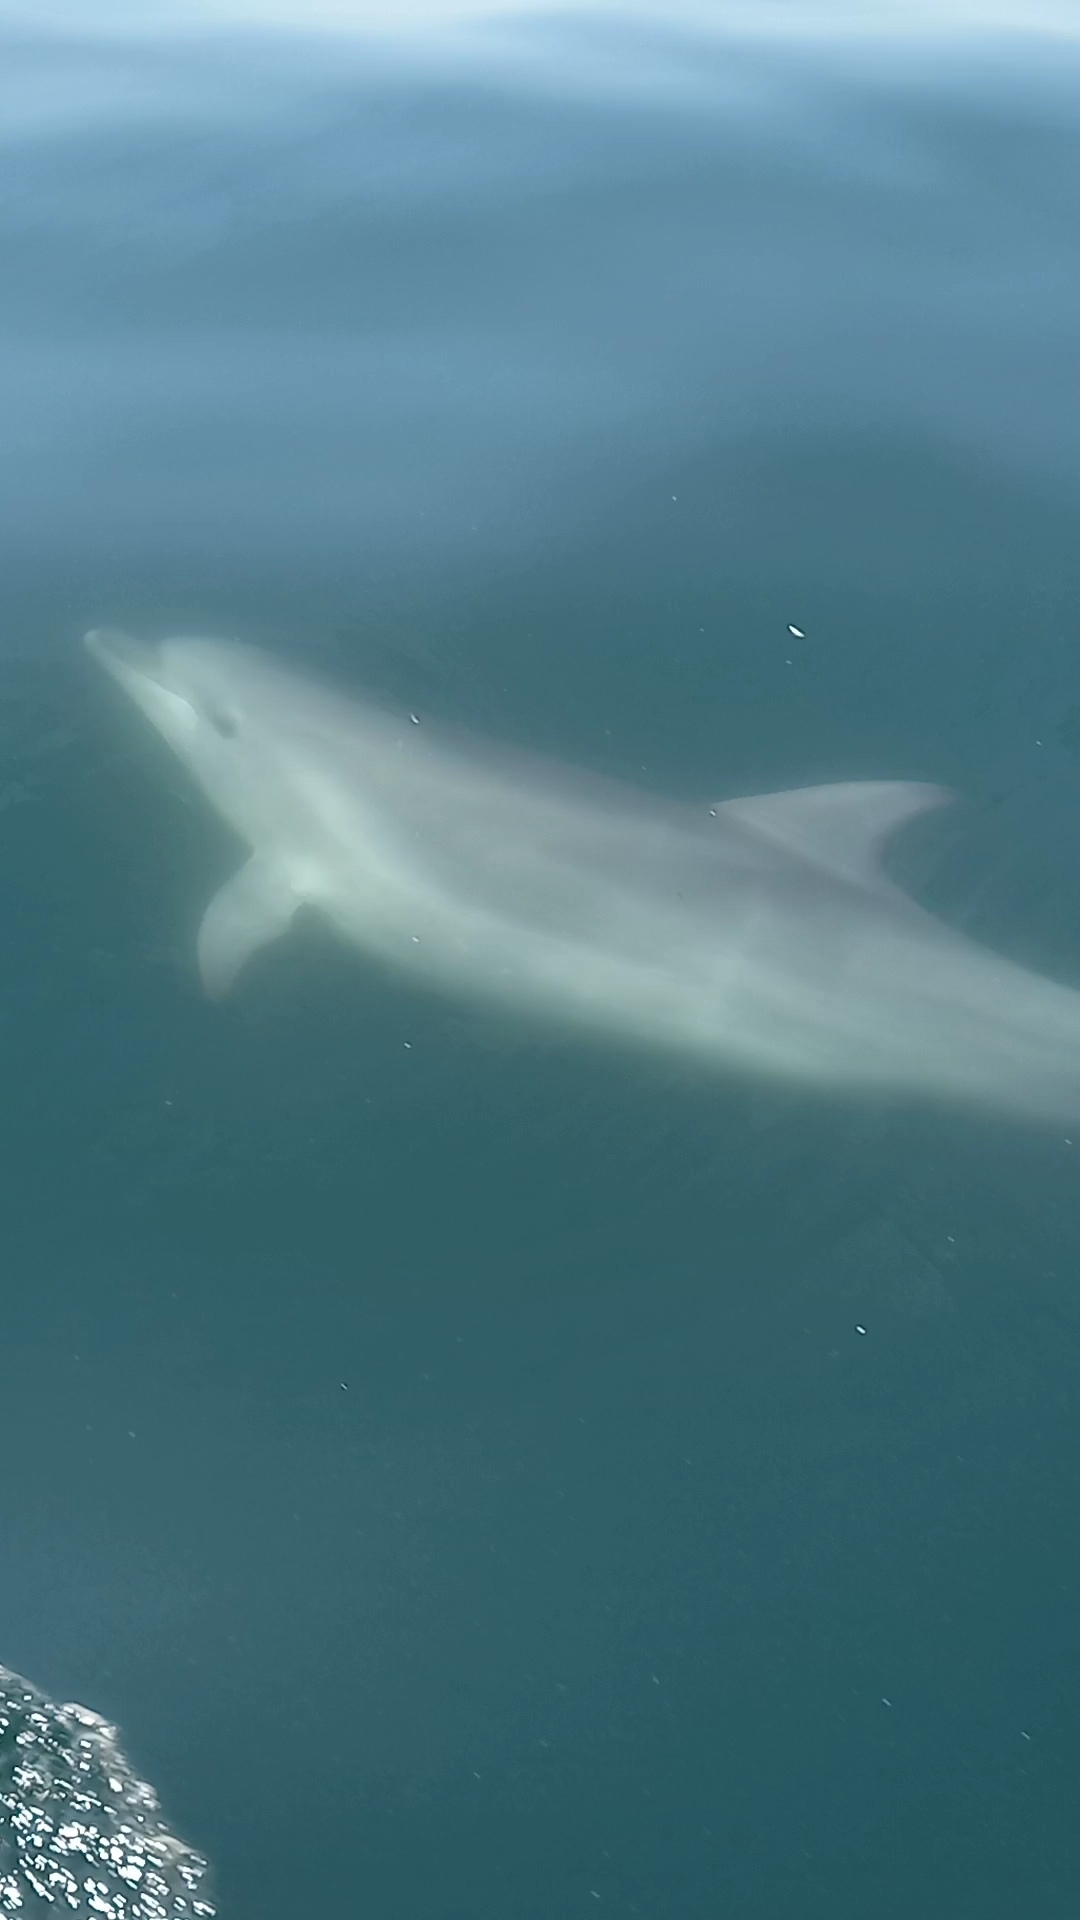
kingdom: Animalia
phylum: Chordata
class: Mammalia
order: Cetacea
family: Delphinidae
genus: Tursiops
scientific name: Tursiops truncatus
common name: Bottlenose dolphin
